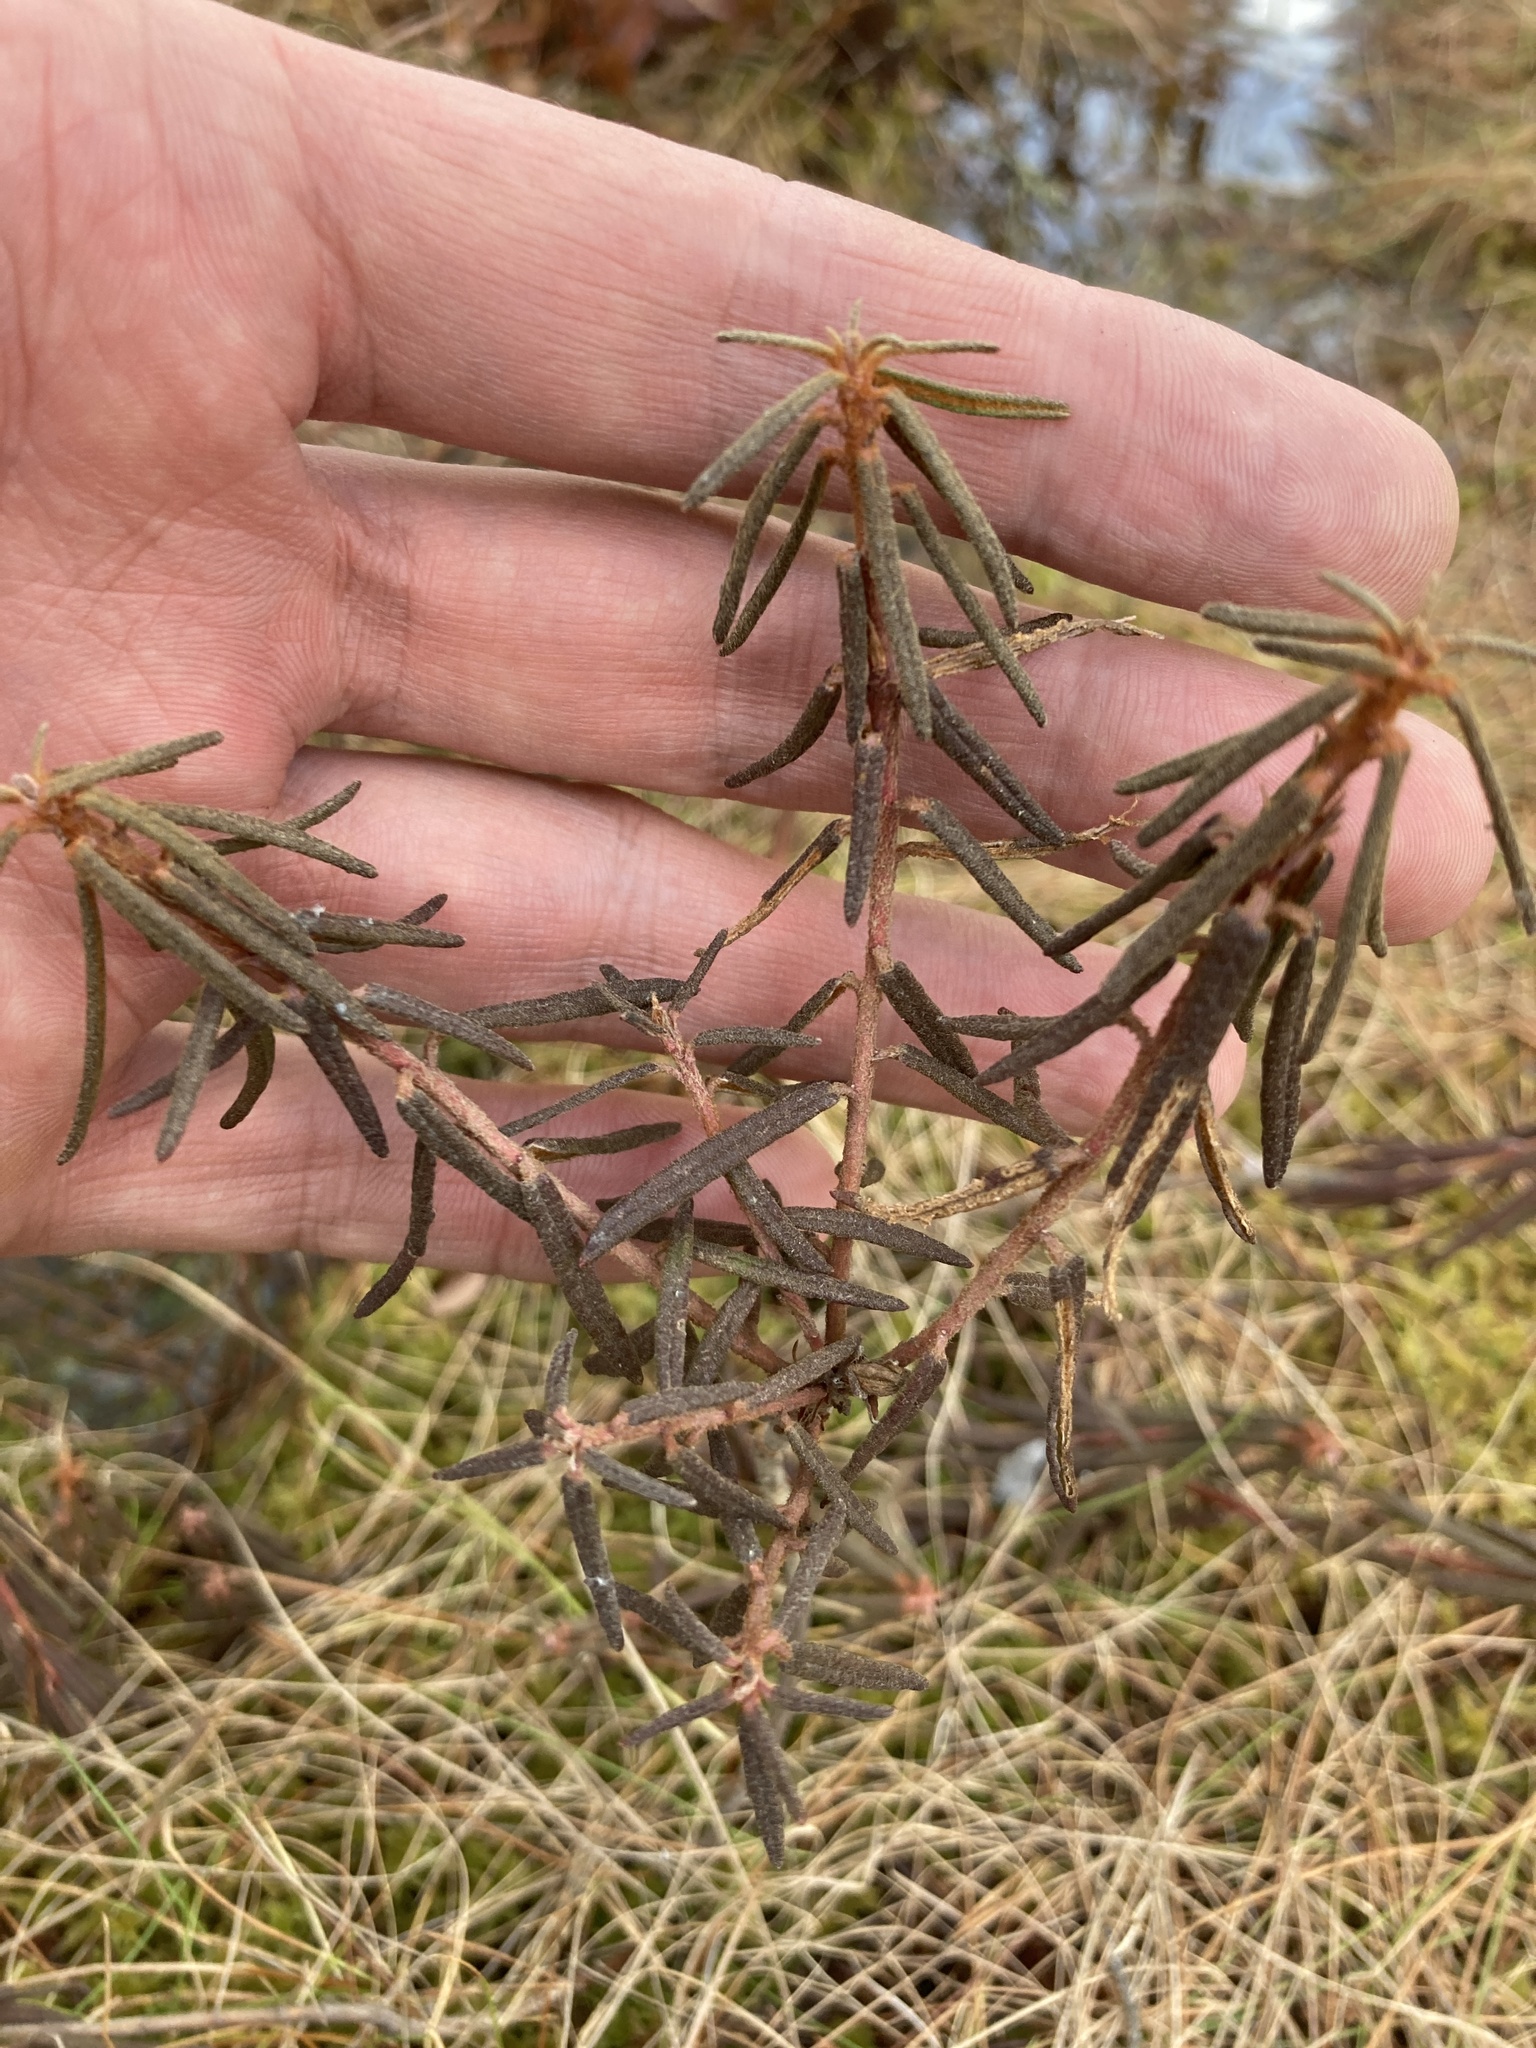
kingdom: Plantae
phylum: Tracheophyta
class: Magnoliopsida
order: Ericales
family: Ericaceae
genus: Rhododendron
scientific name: Rhododendron tomentosum
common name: Marsh labrador tea
